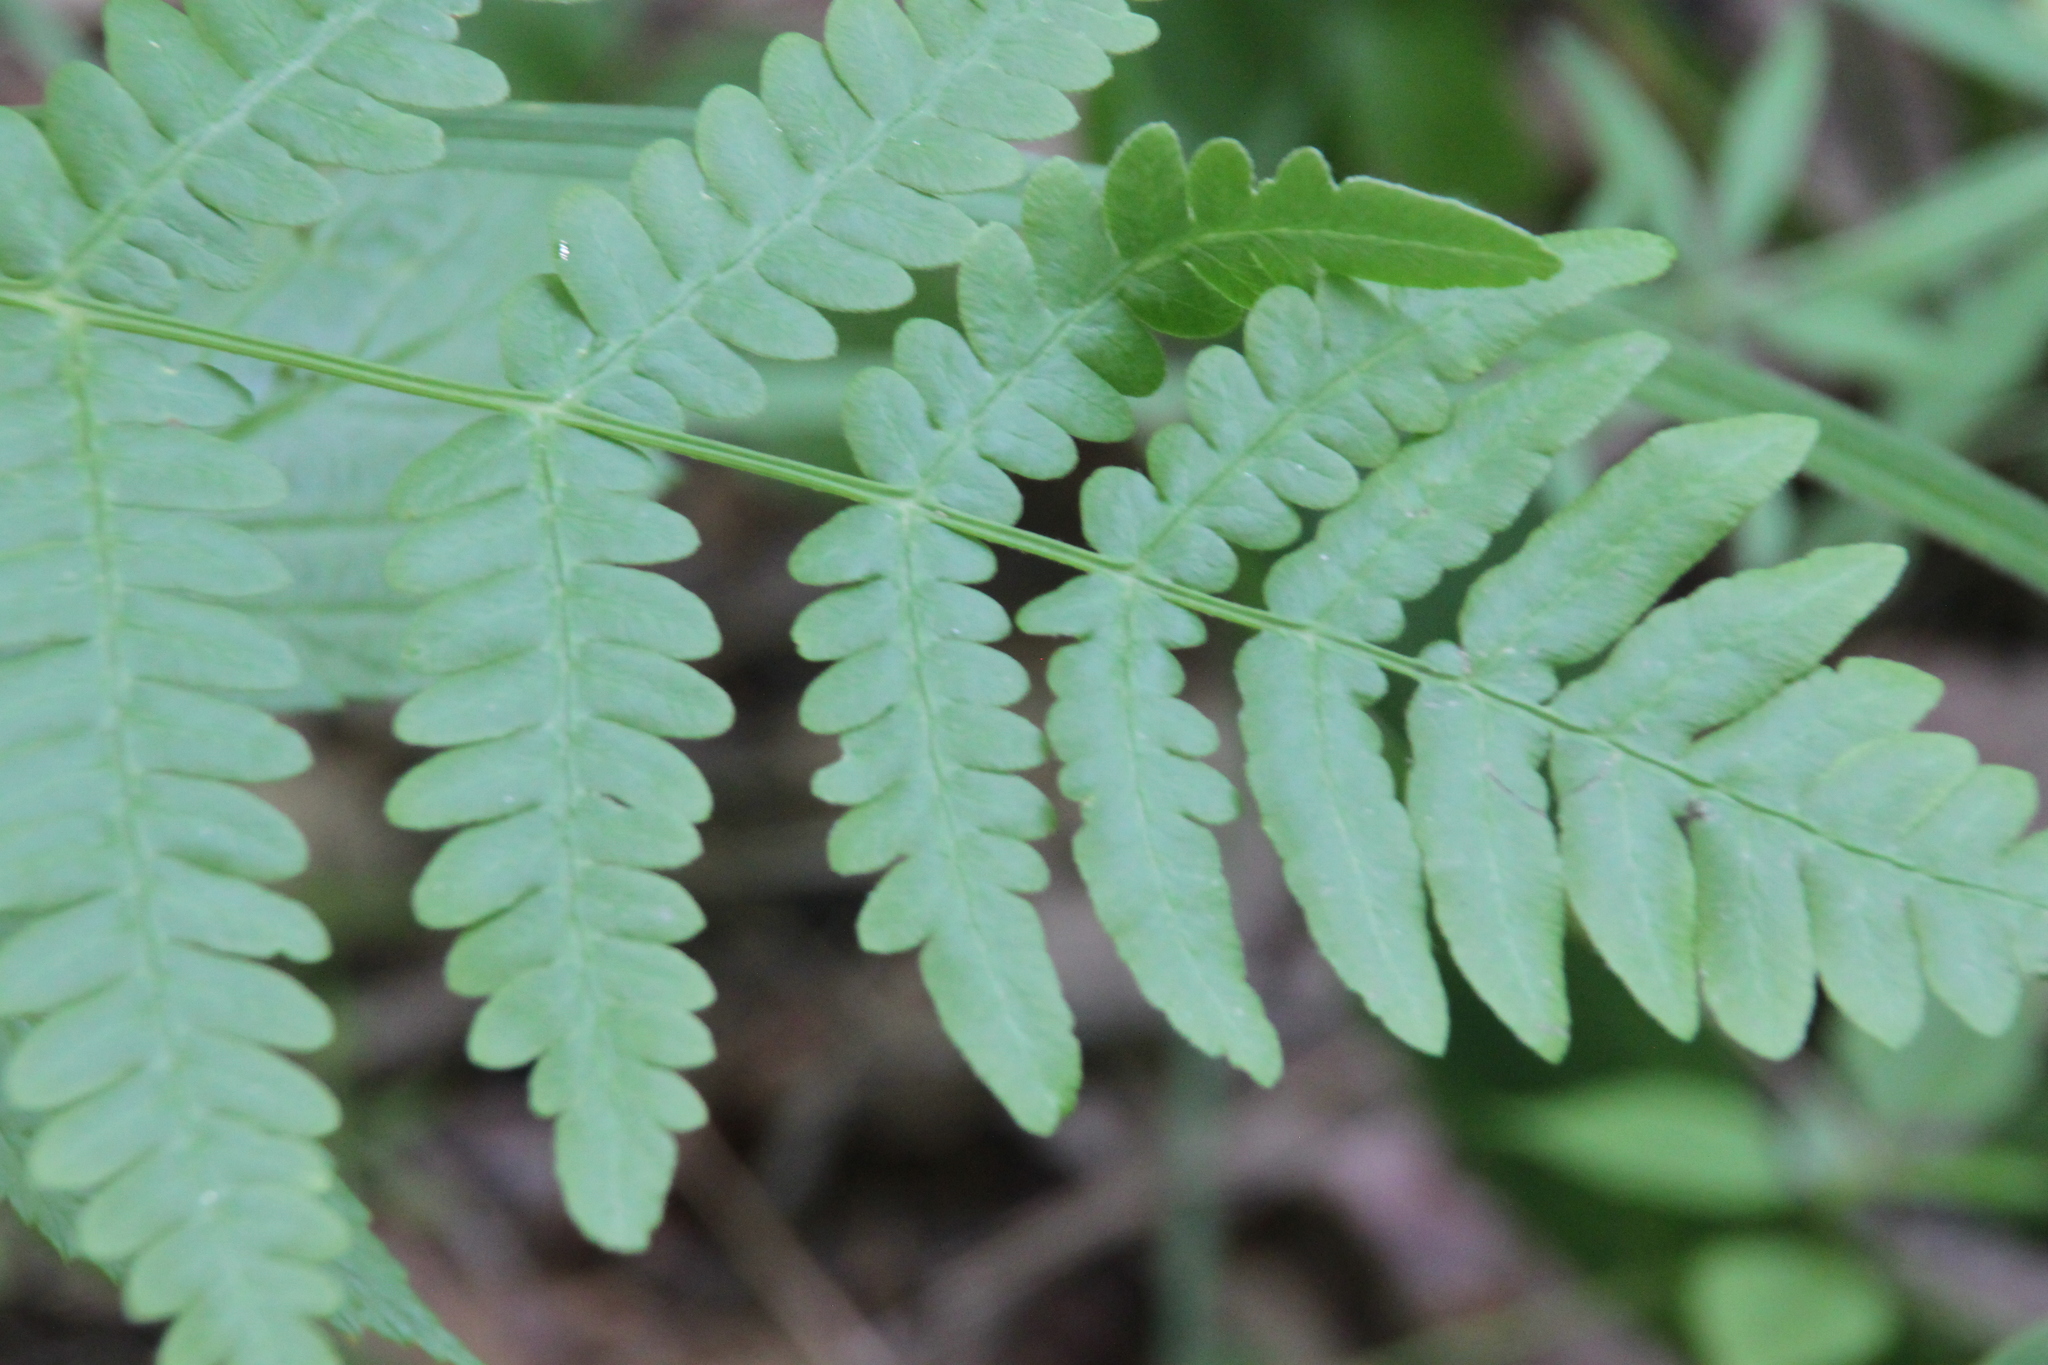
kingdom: Plantae
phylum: Tracheophyta
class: Polypodiopsida
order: Polypodiales
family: Dennstaedtiaceae
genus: Pteridium
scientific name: Pteridium aquilinum
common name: Bracken
